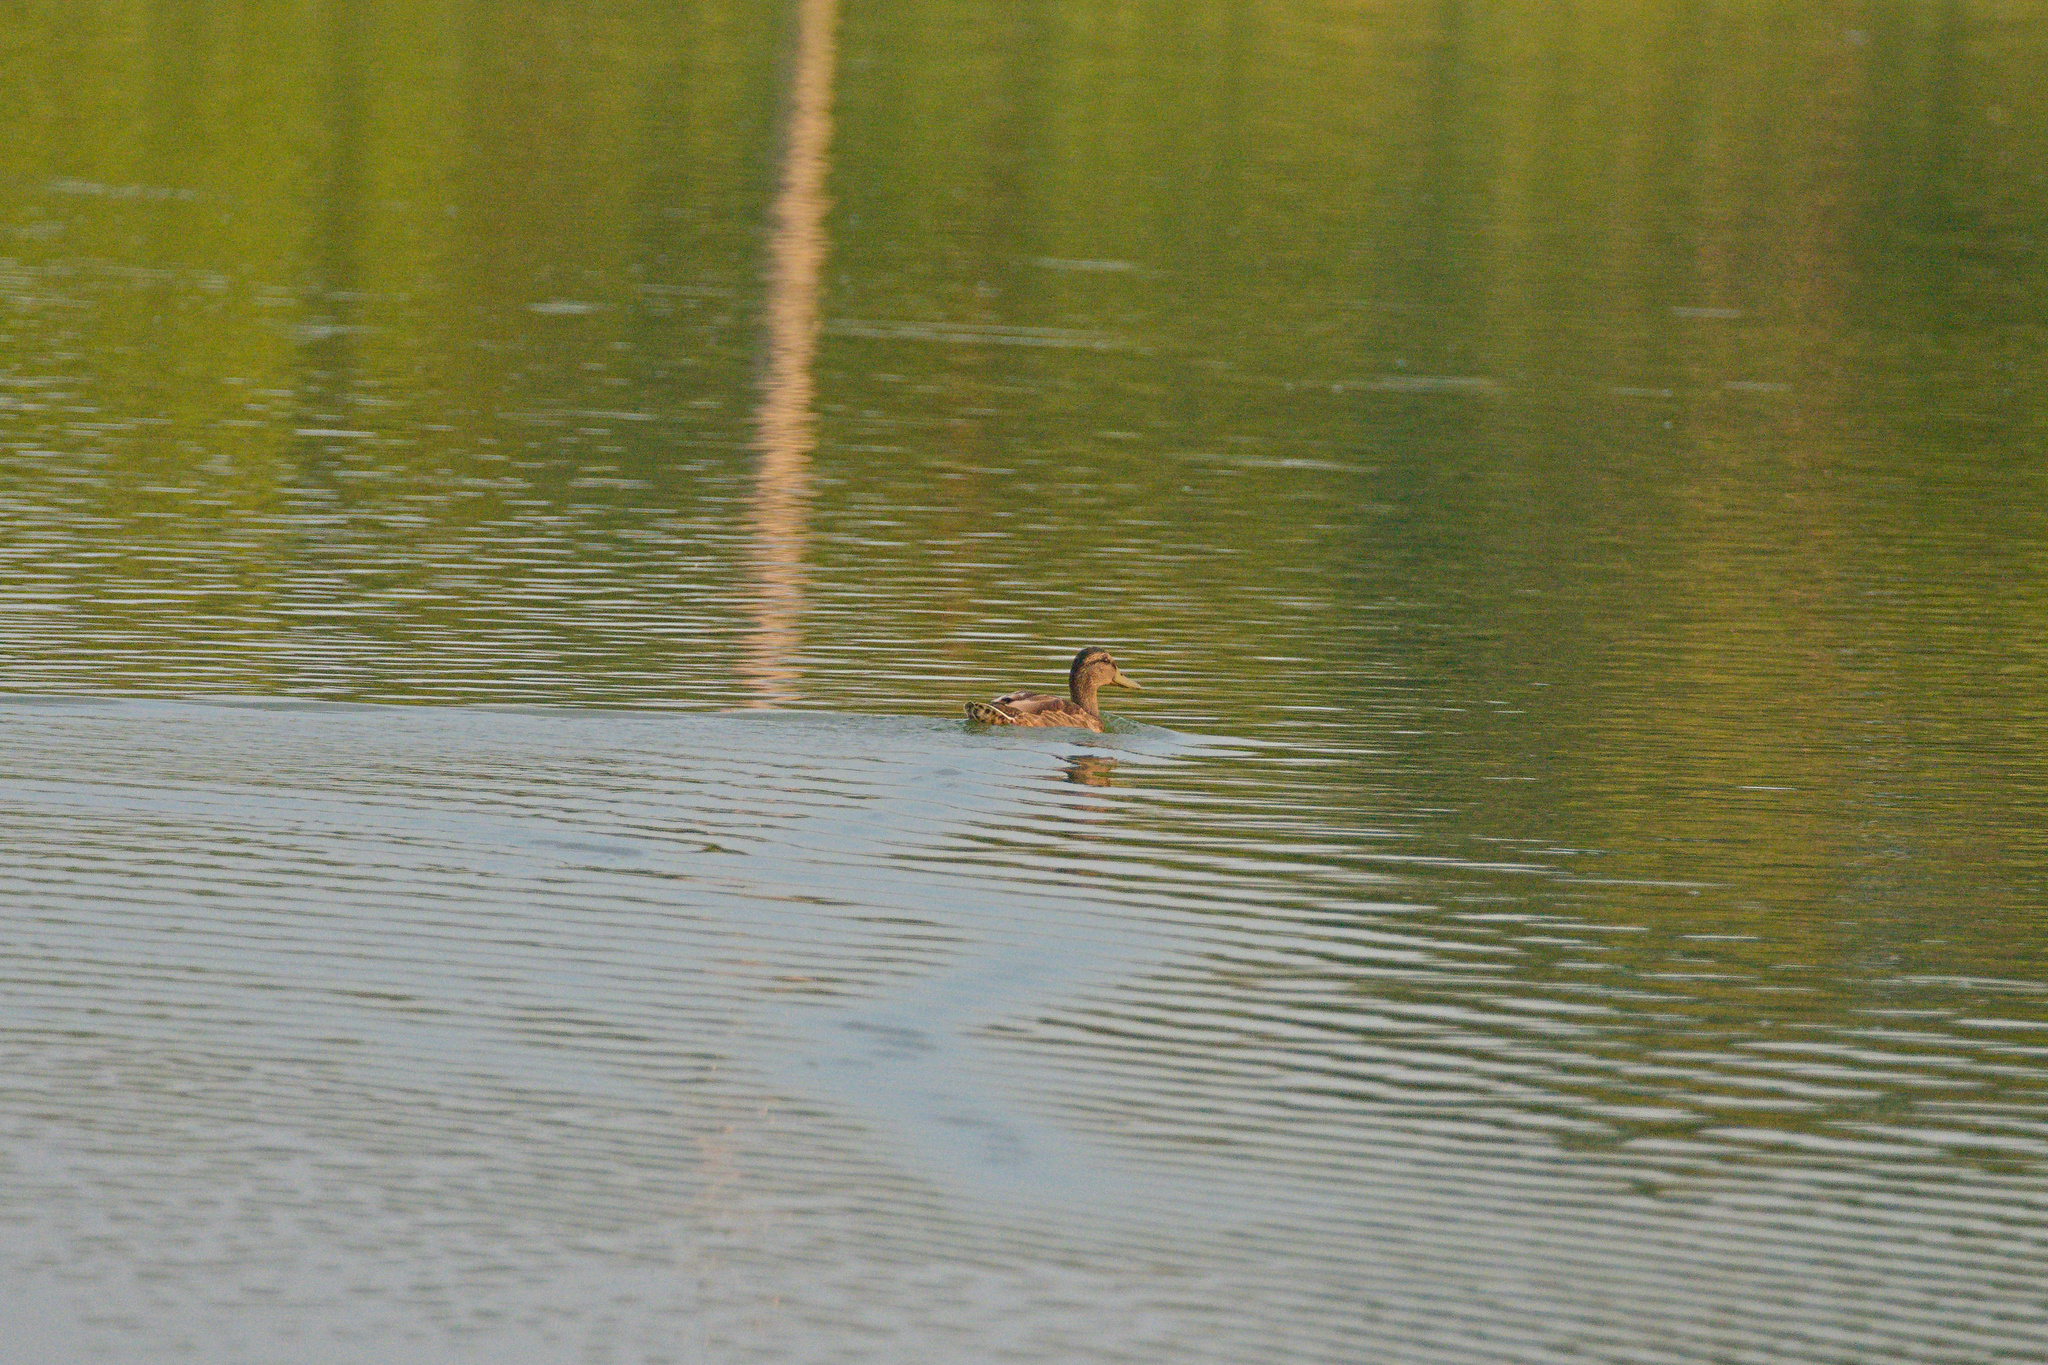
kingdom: Animalia
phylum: Chordata
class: Aves
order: Anseriformes
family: Anatidae
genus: Anas
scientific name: Anas platyrhynchos
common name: Mallard
